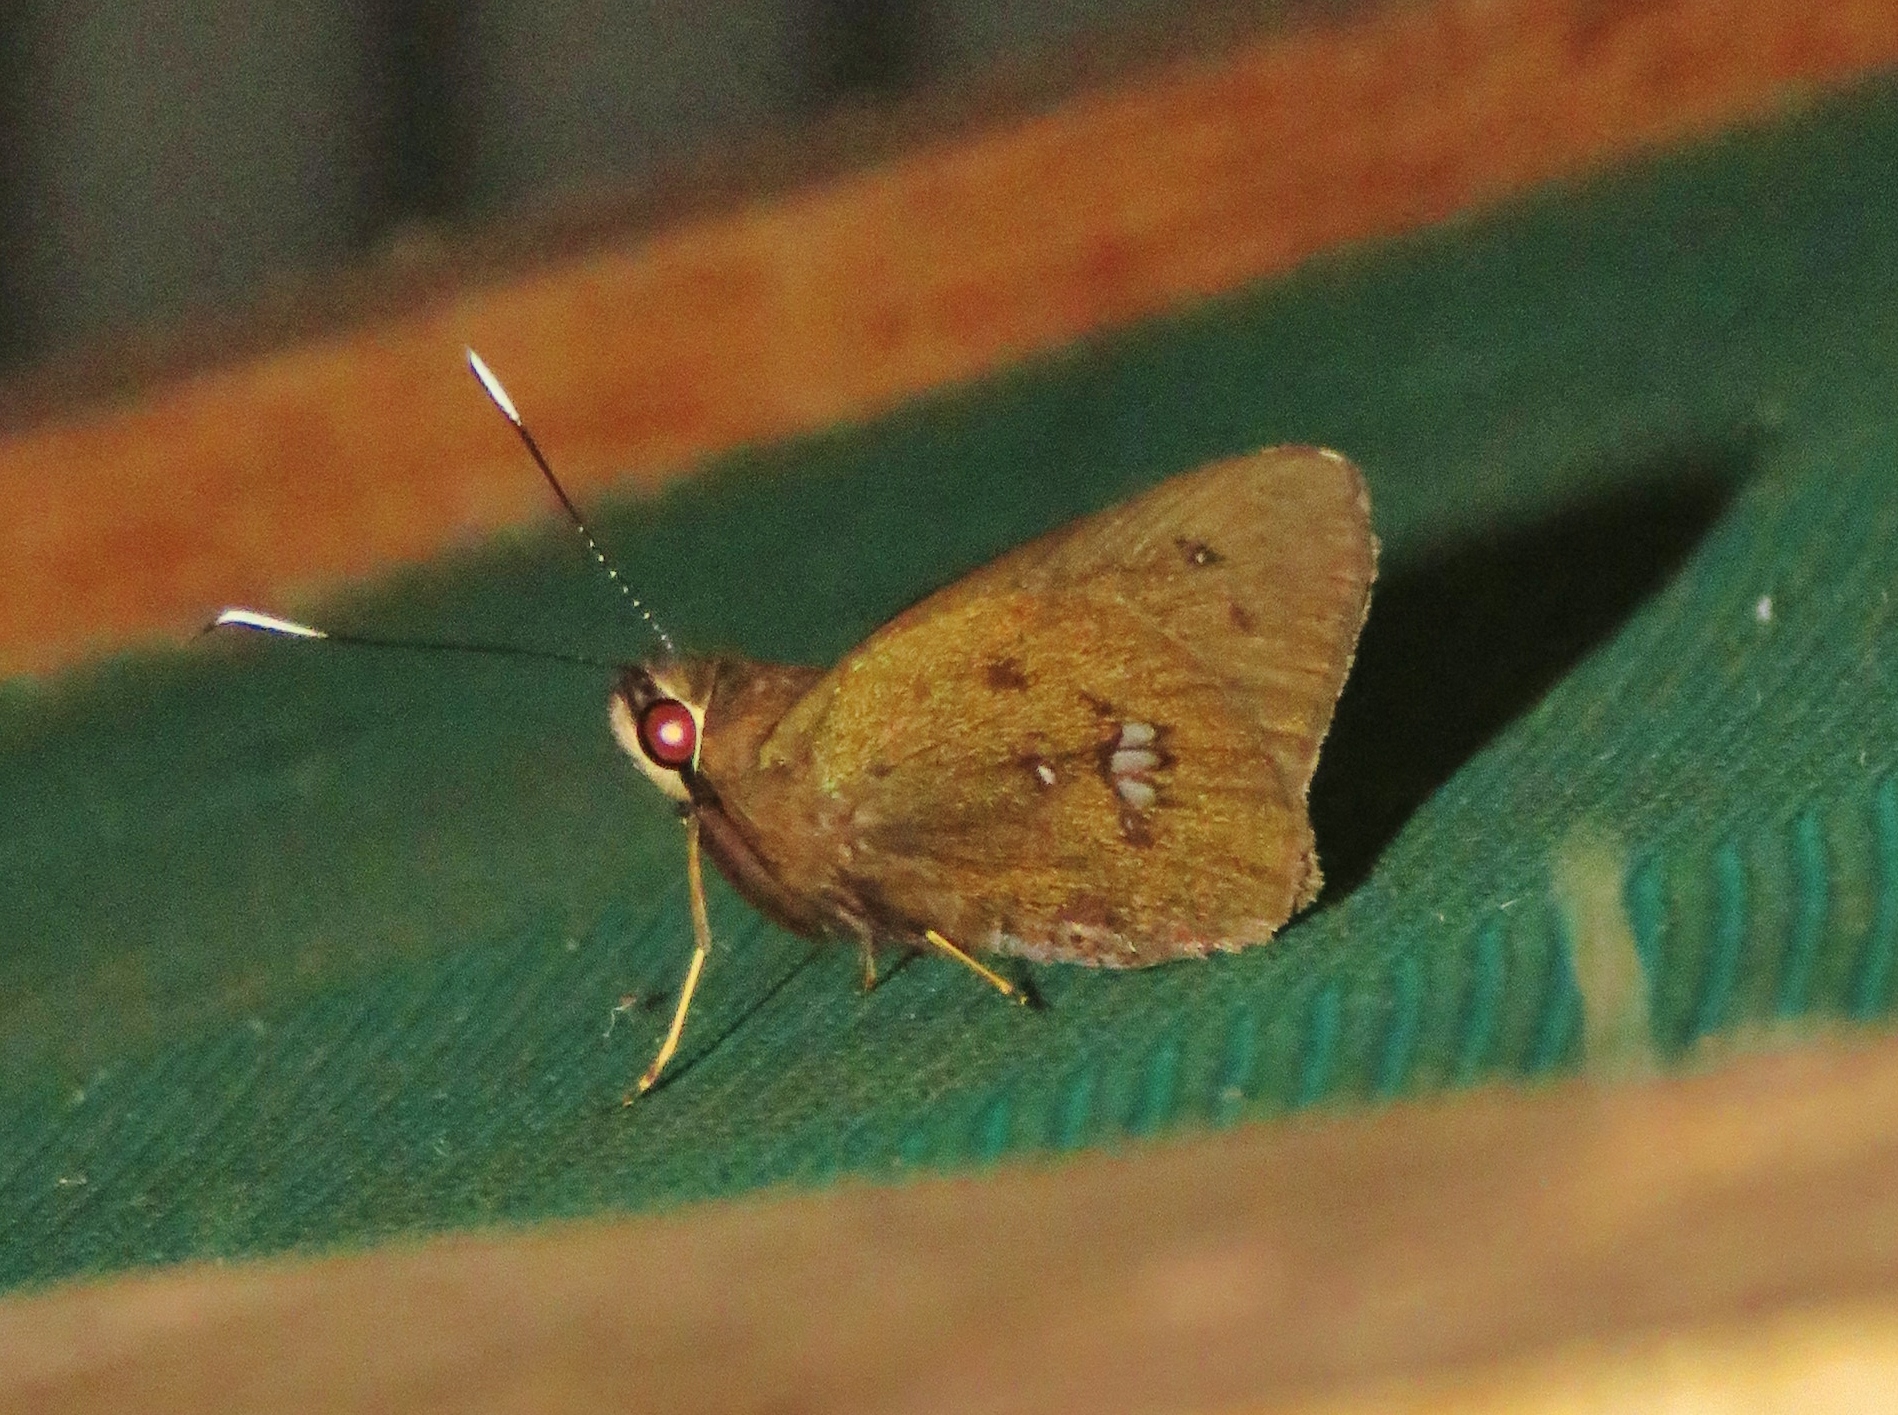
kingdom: Animalia
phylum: Arthropoda
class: Insecta
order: Lepidoptera
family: Hesperiidae
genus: Carystoides
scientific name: Carystoides maroma
